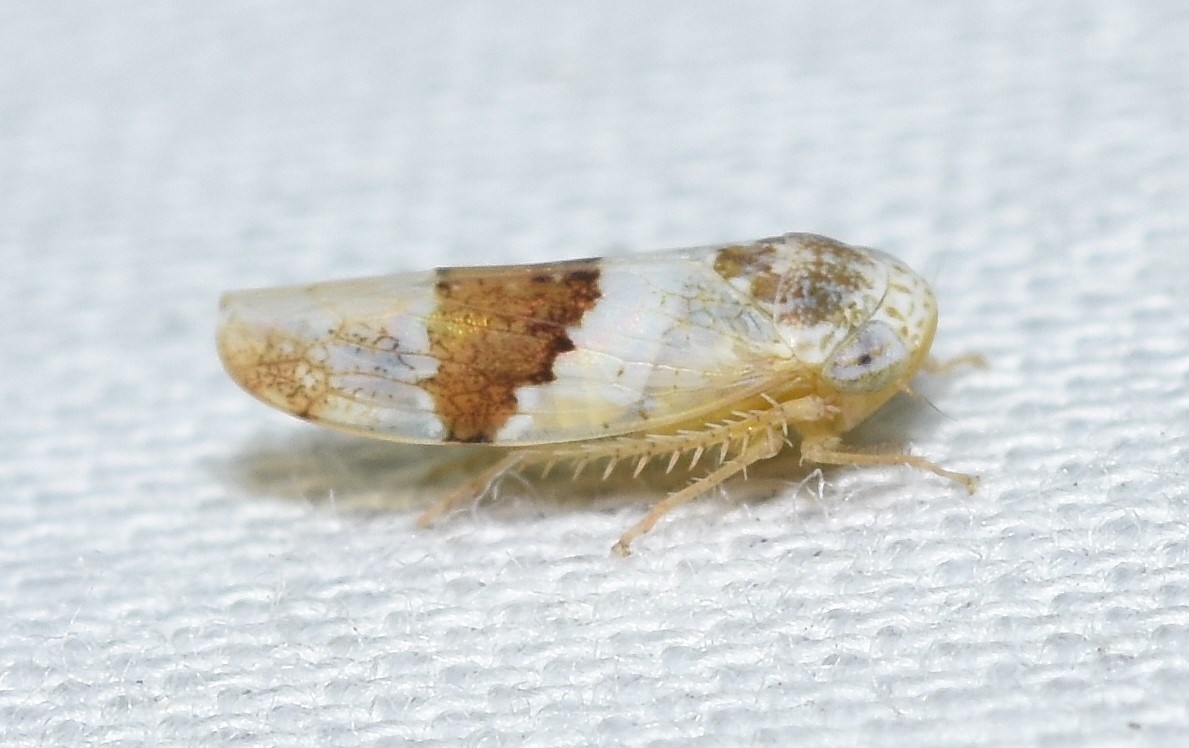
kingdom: Animalia
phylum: Arthropoda
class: Insecta
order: Hemiptera
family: Cicadellidae
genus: Norvellina
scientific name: Norvellina seminuda
